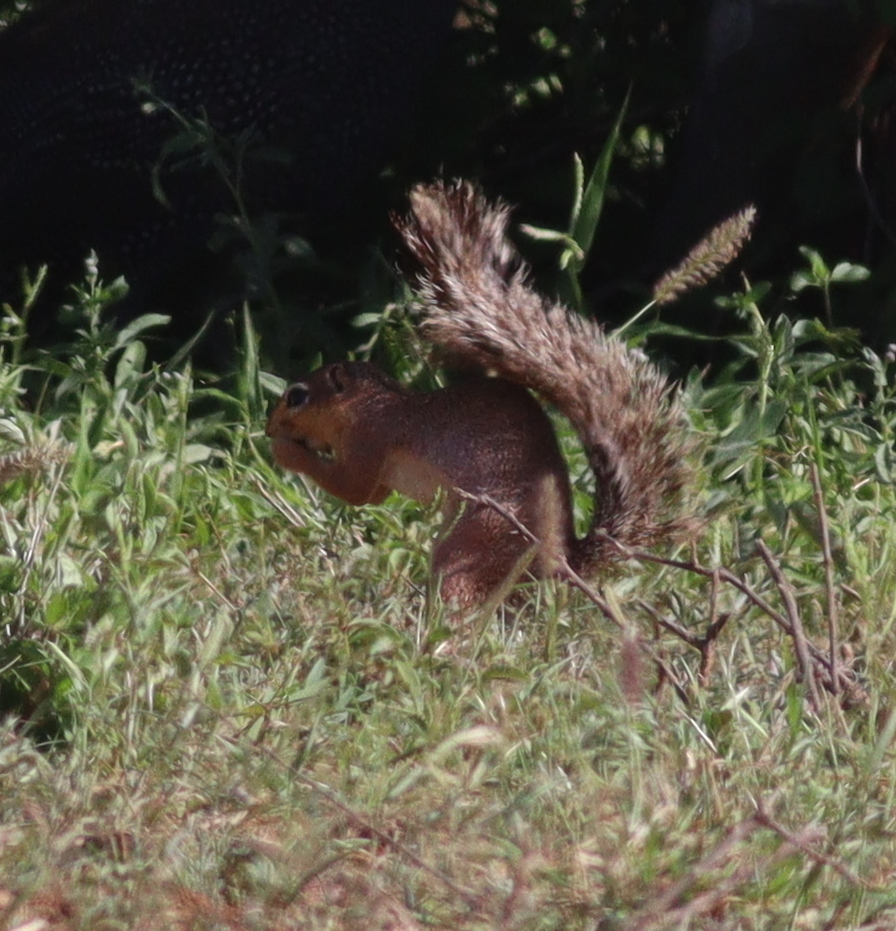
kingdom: Animalia
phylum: Chordata
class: Mammalia
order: Rodentia
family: Sciuridae
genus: Xerus
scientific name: Xerus rutilus
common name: Unstriped ground squirrel
